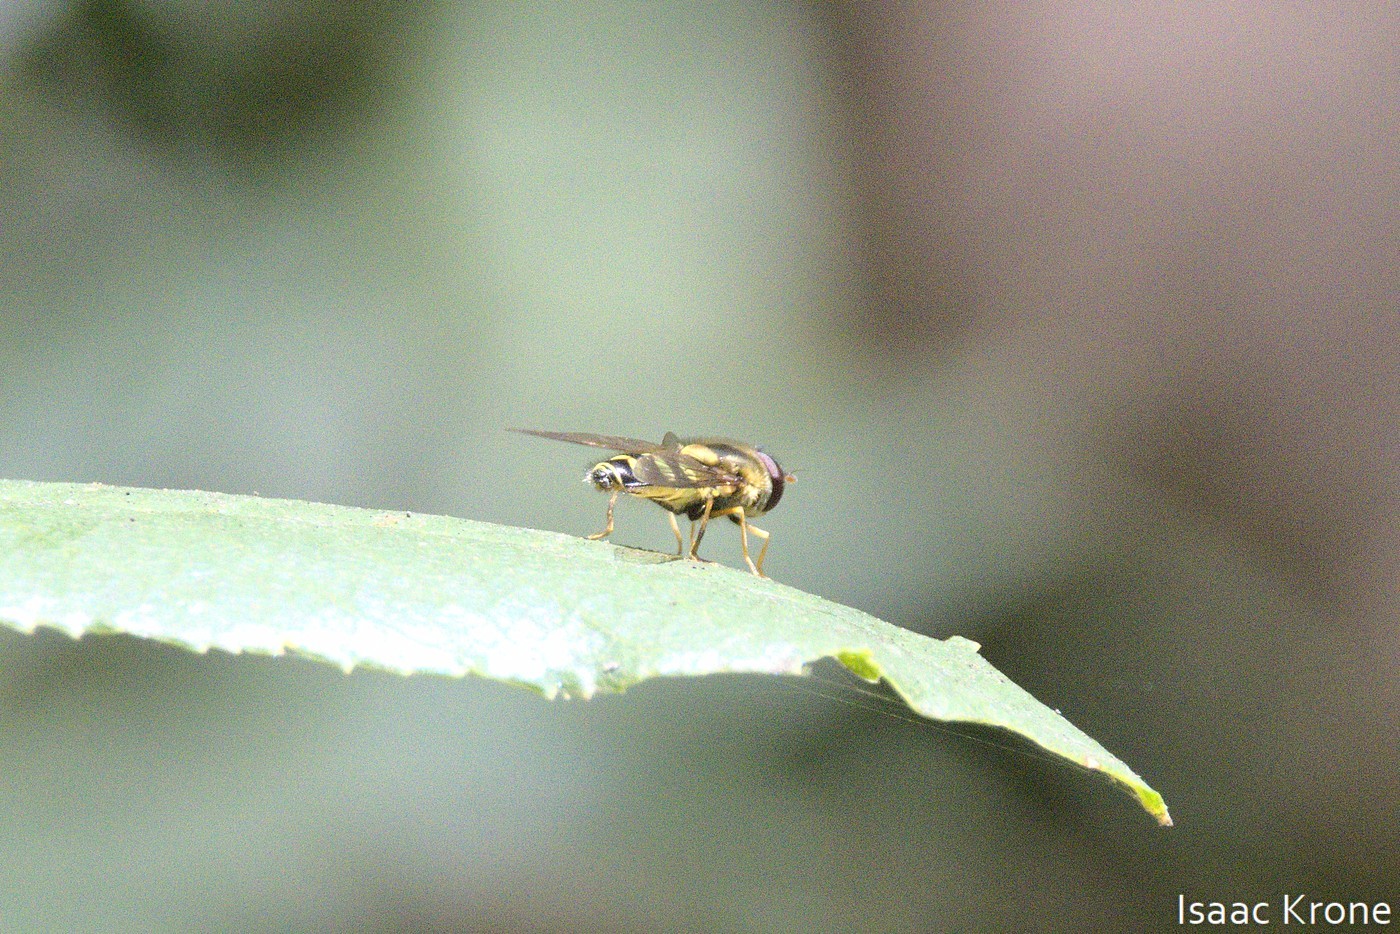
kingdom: Animalia
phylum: Arthropoda
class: Insecta
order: Diptera
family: Syrphidae
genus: Syrphus
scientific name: Syrphus opinator
